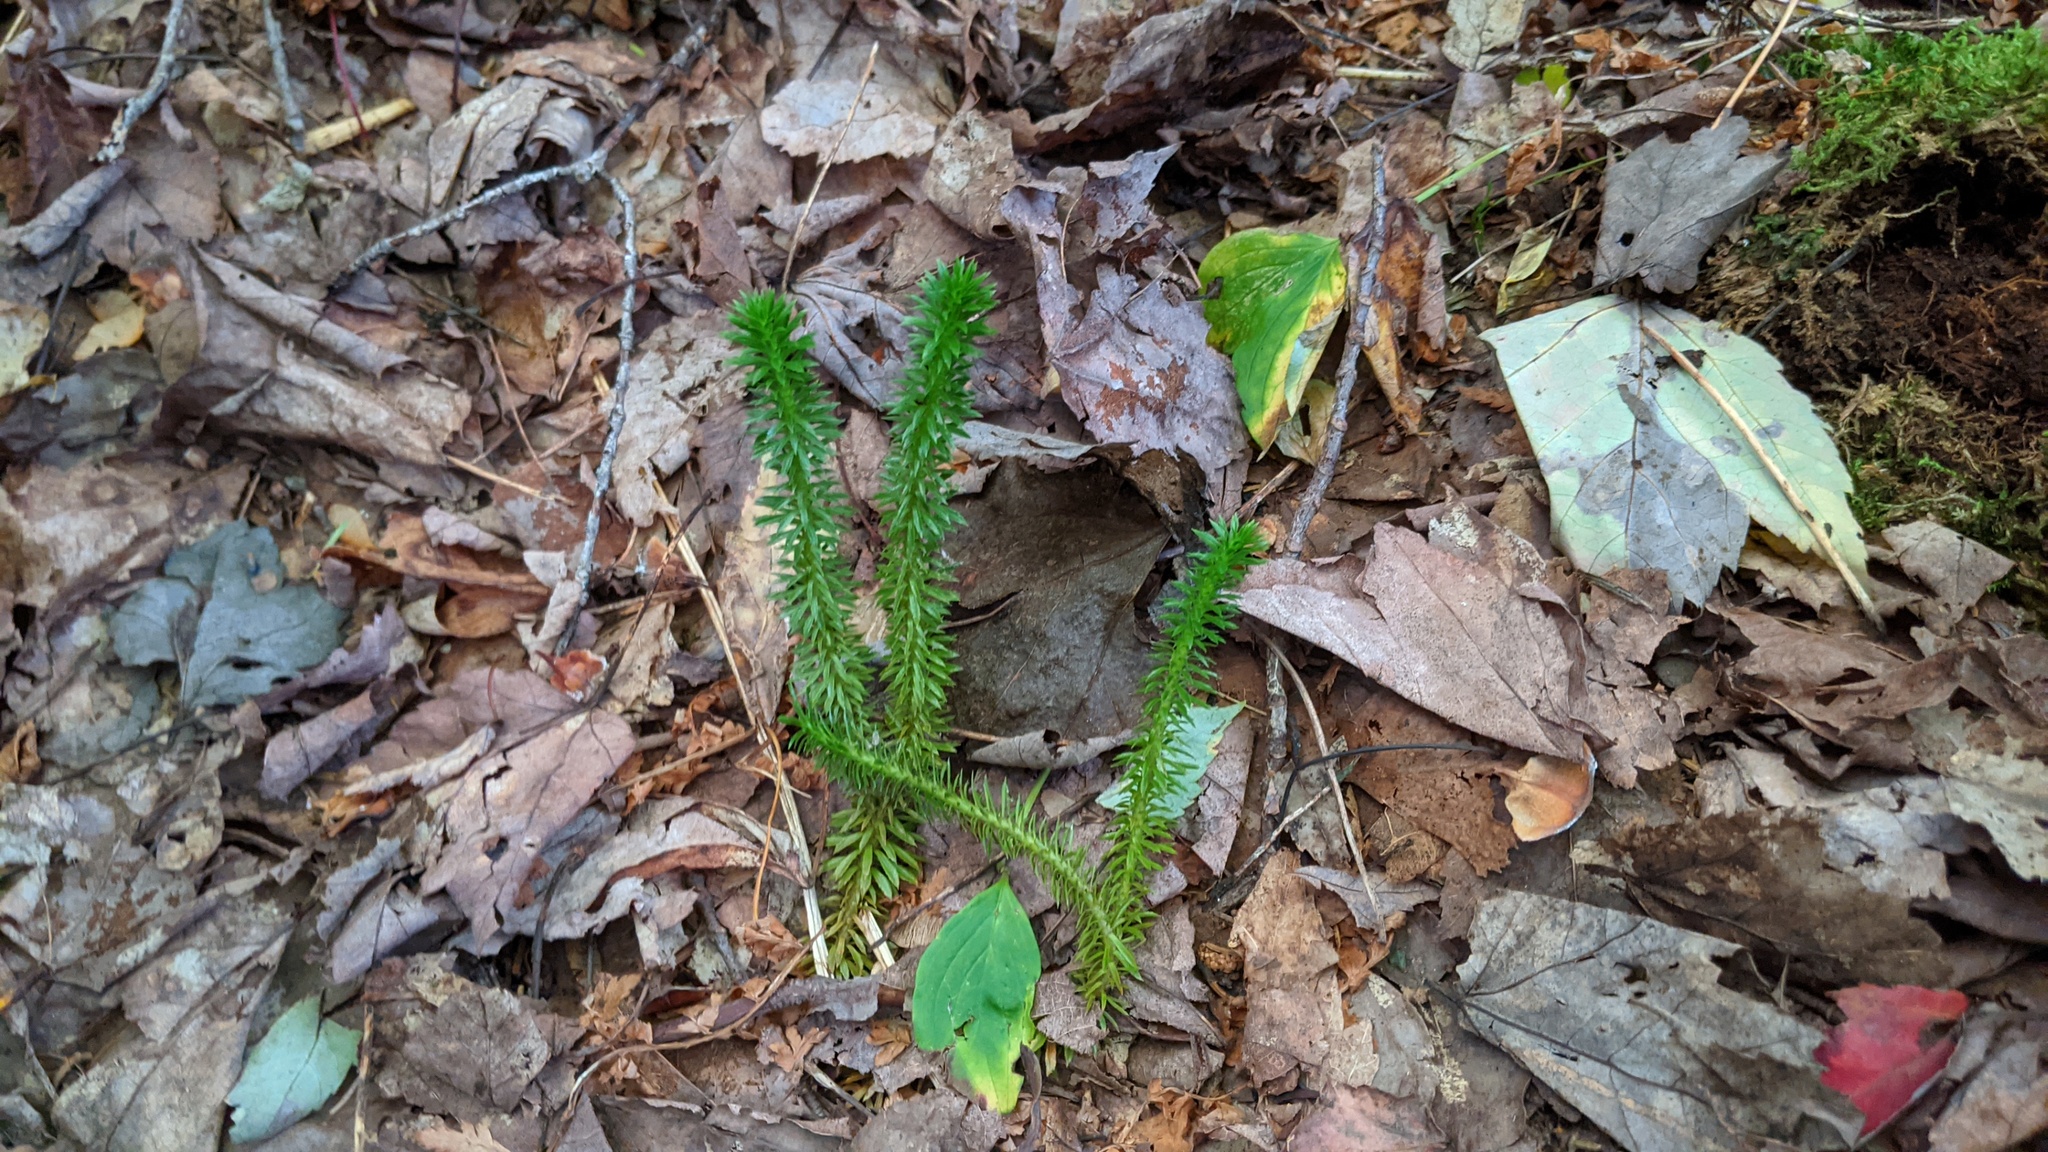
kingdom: Plantae
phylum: Tracheophyta
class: Lycopodiopsida
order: Lycopodiales
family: Lycopodiaceae
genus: Huperzia
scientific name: Huperzia lucidula
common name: Shining clubmoss
